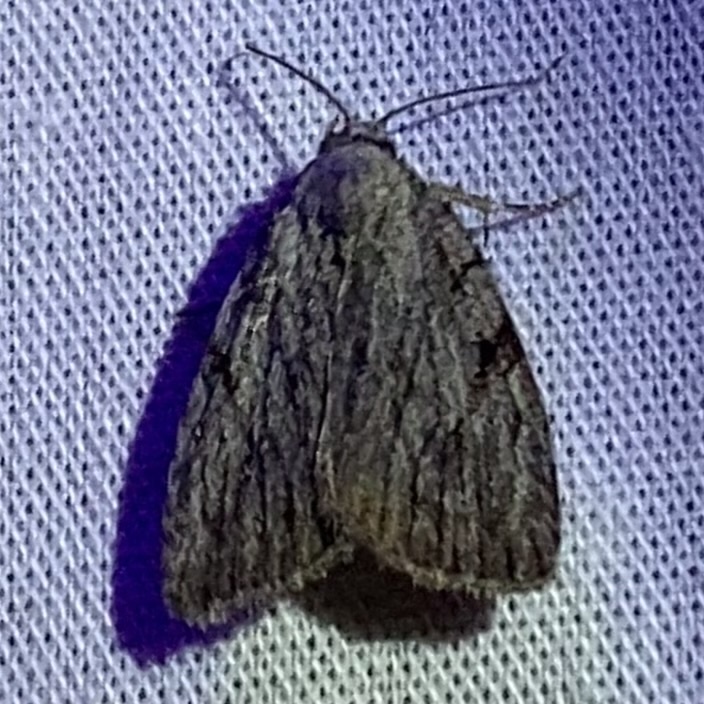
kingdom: Animalia
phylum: Arthropoda
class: Insecta
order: Lepidoptera
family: Noctuidae
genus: Balsa
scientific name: Balsa tristrigella
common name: Three-lined balsa moth
